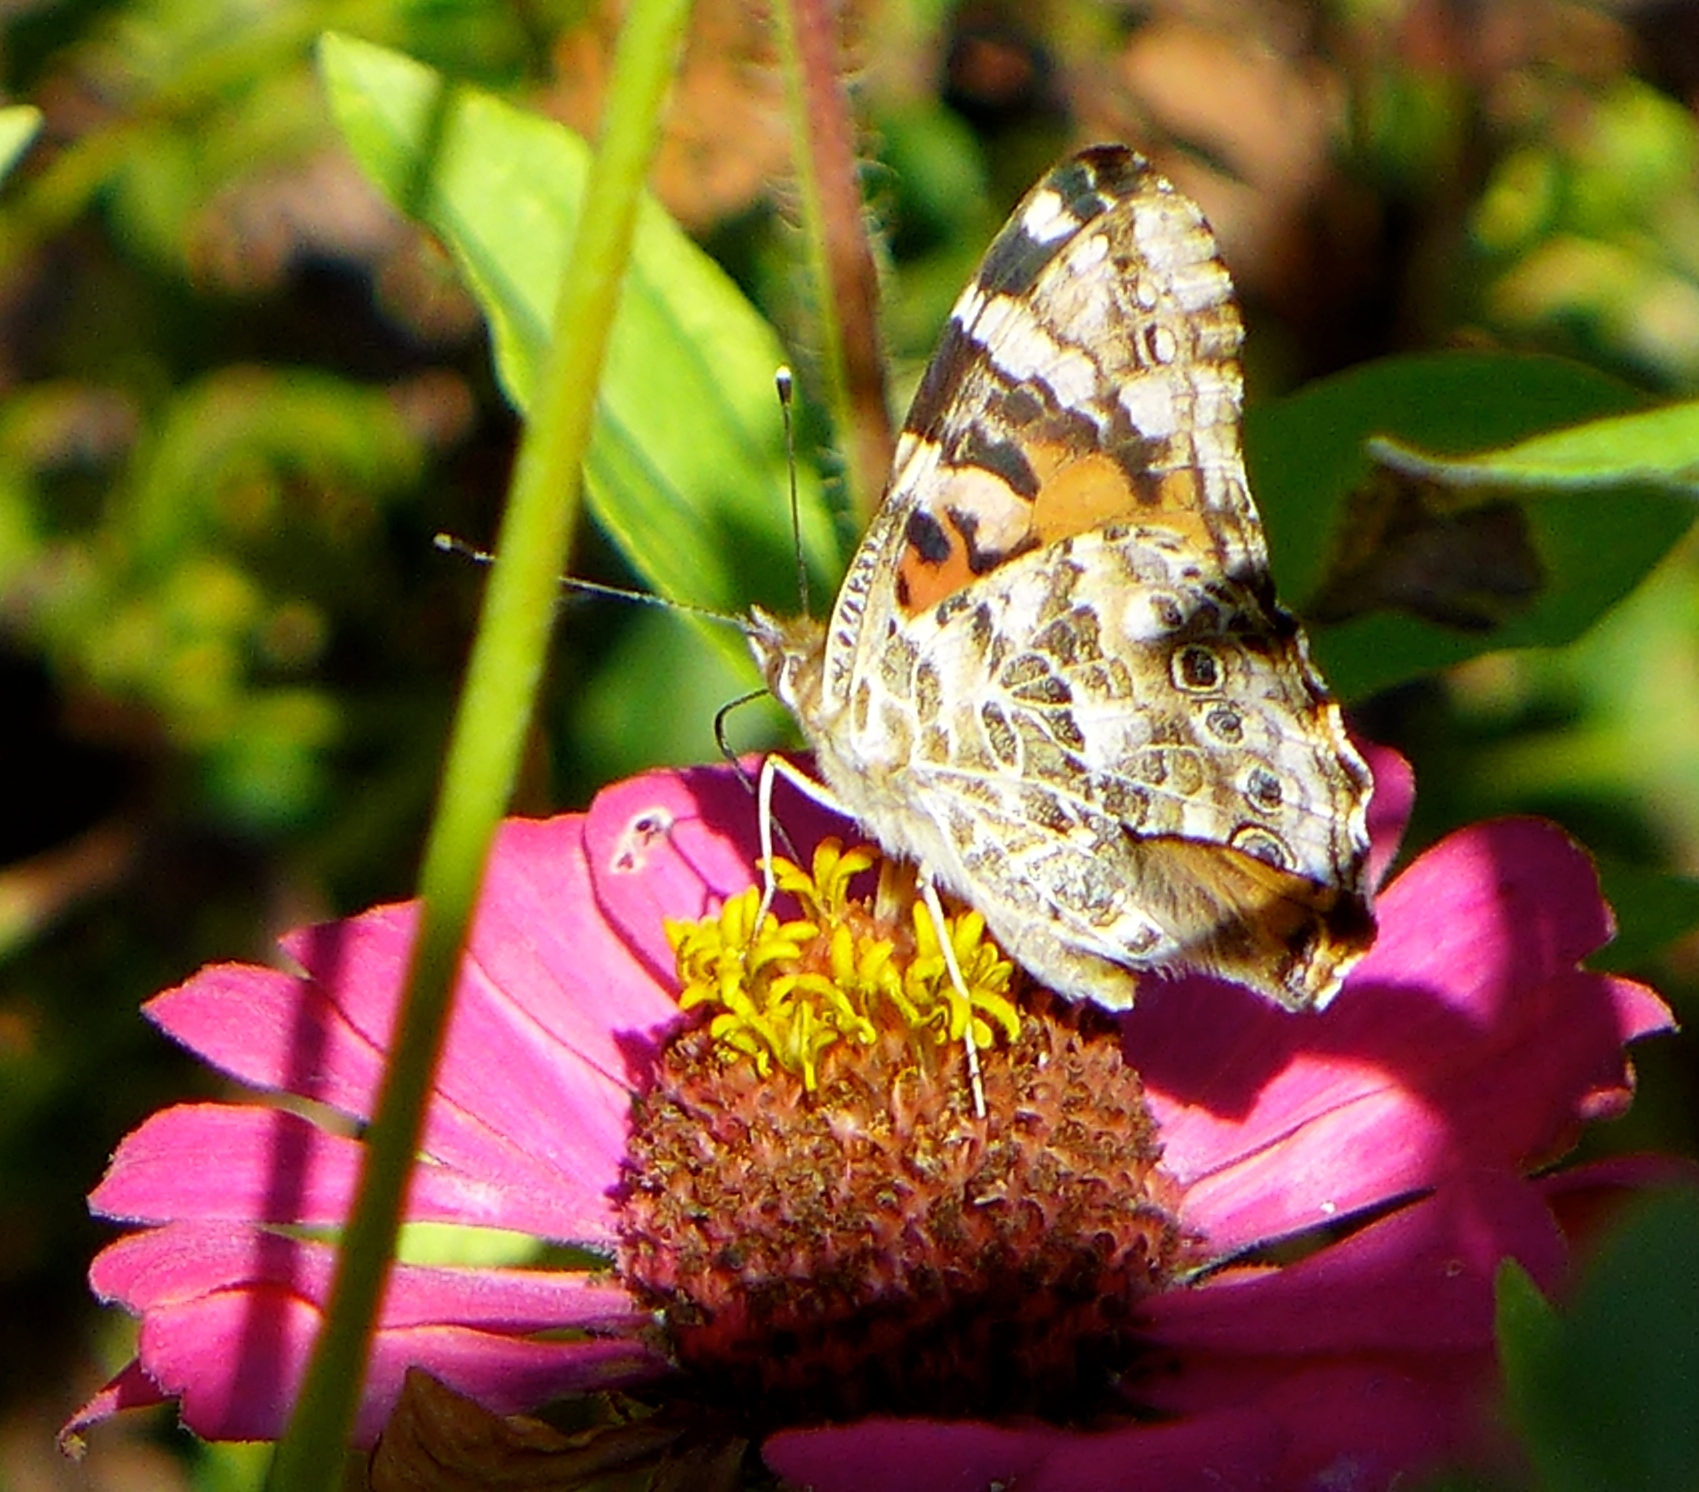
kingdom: Animalia
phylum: Arthropoda
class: Insecta
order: Lepidoptera
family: Nymphalidae
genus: Vanessa
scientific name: Vanessa cardui
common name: Painted lady
